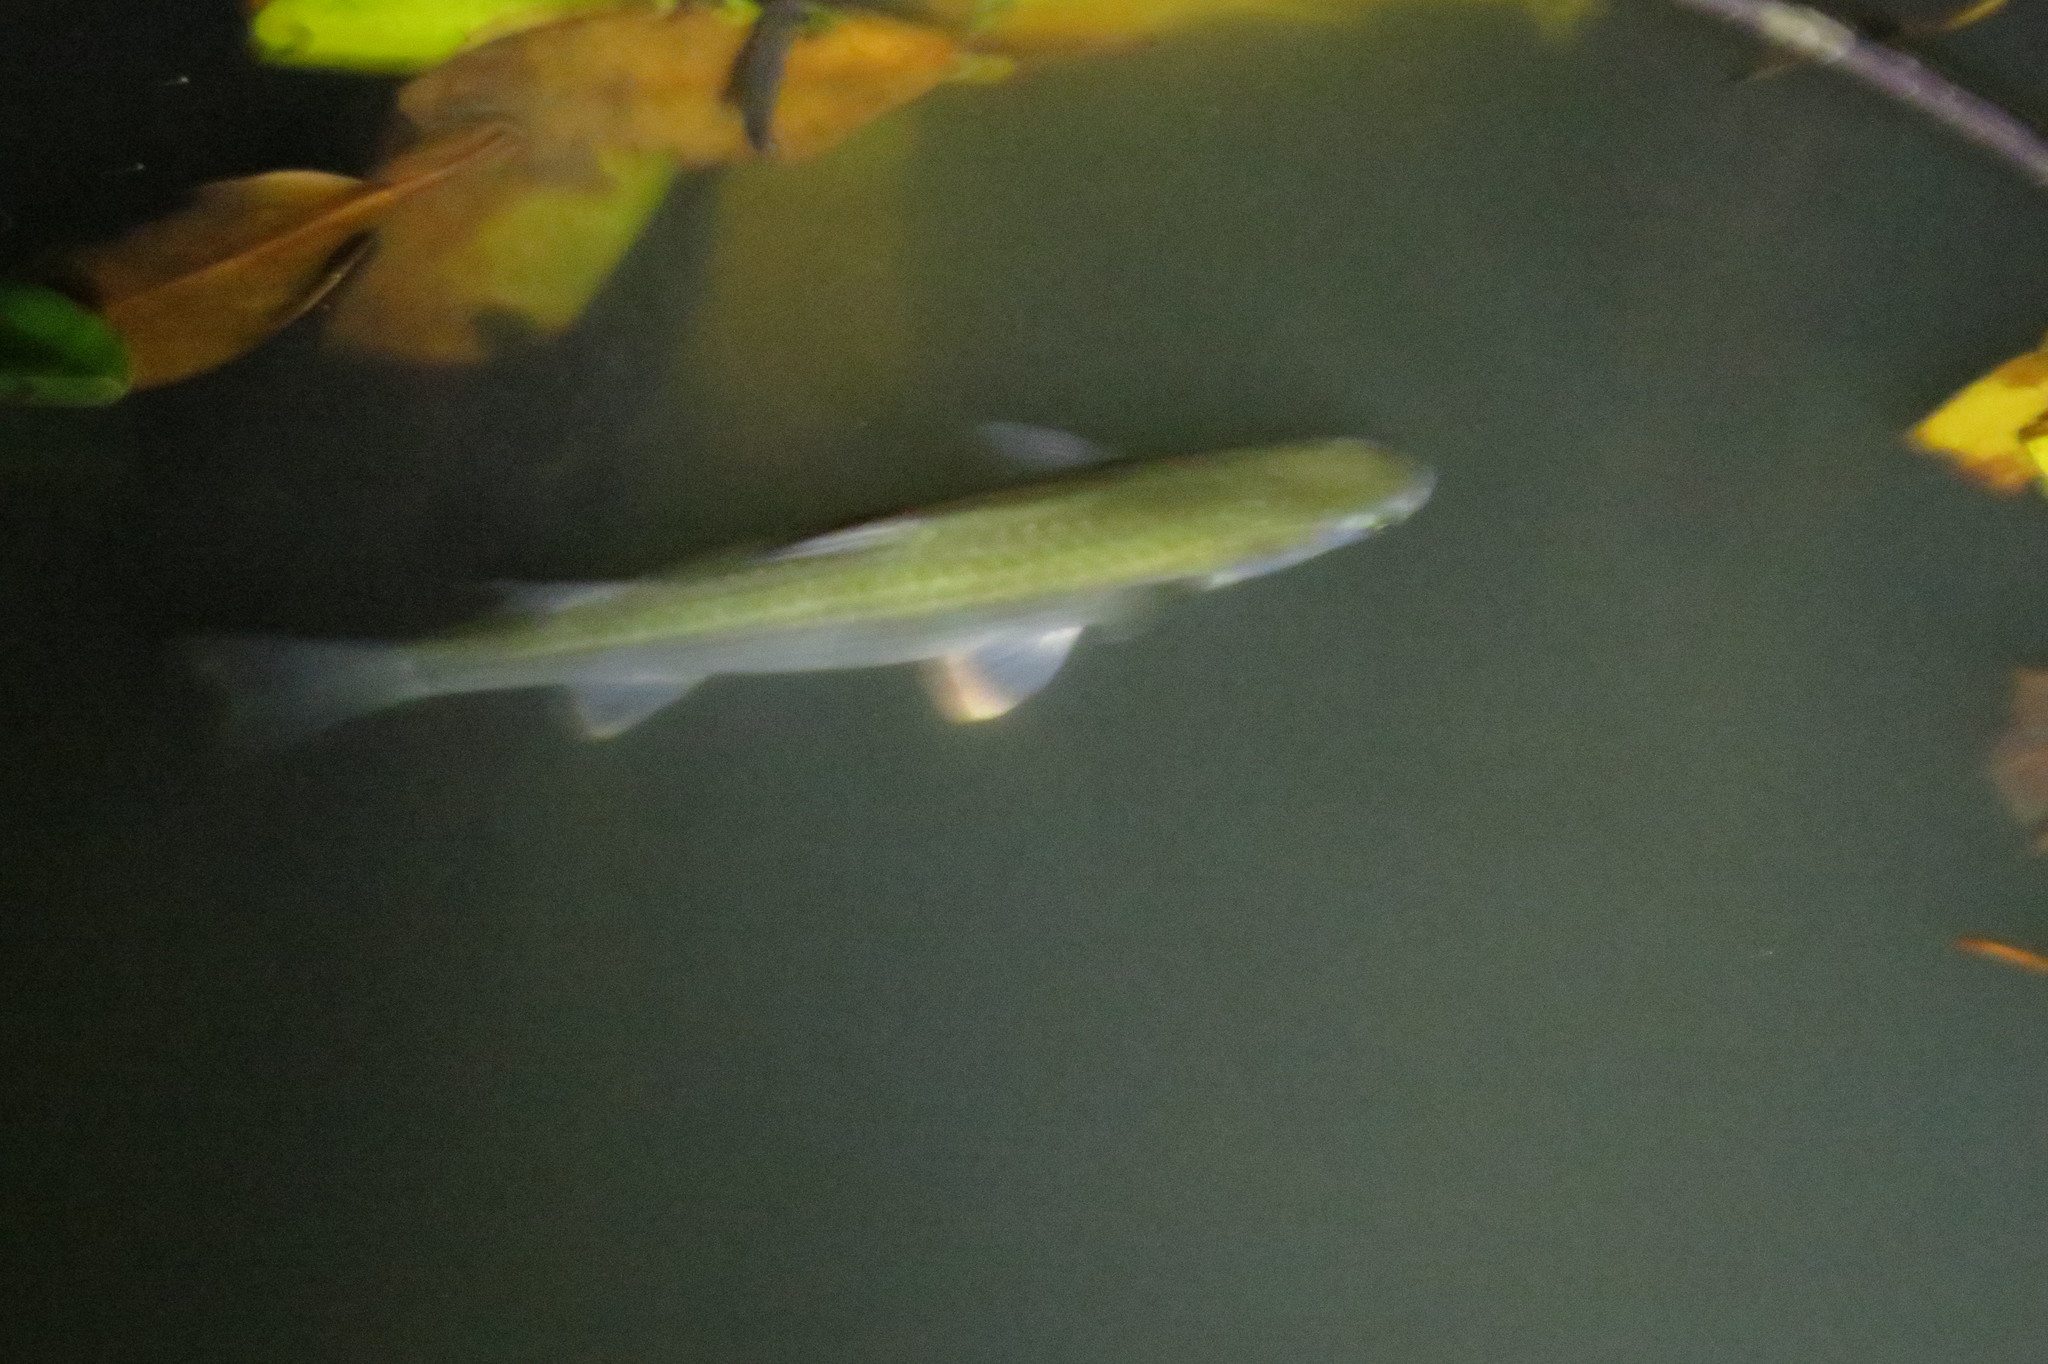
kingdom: Animalia
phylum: Chordata
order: Mugiliformes
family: Mugilidae
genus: Planiliza
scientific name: Planiliza subviridis
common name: Greenback mullet
